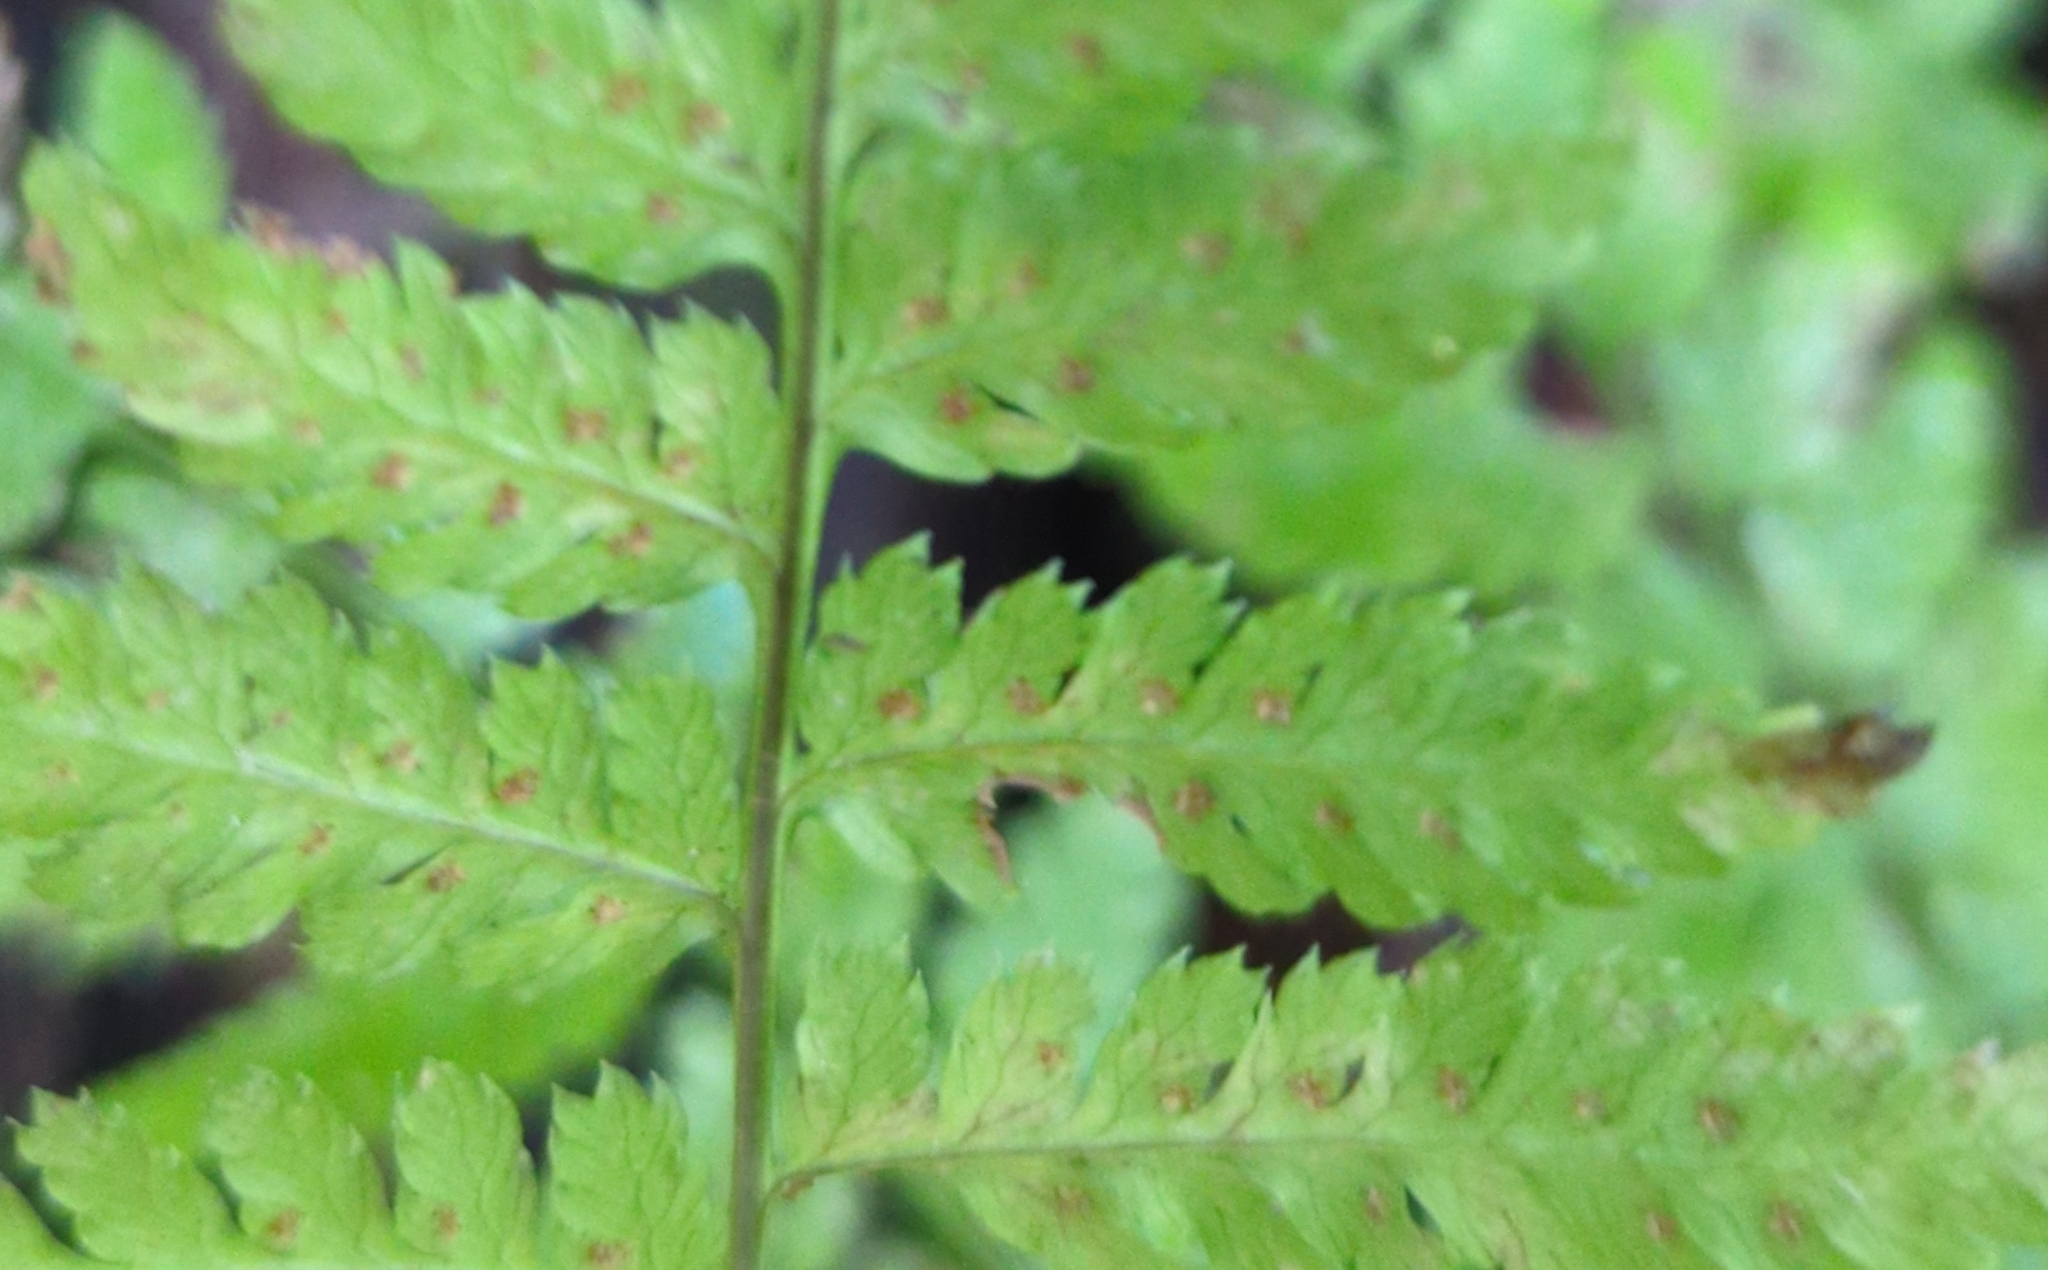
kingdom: Plantae
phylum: Tracheophyta
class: Polypodiopsida
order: Polypodiales
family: Dryopteridaceae
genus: Dryopteris
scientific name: Dryopteris expansa
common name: Northern buckler fern
